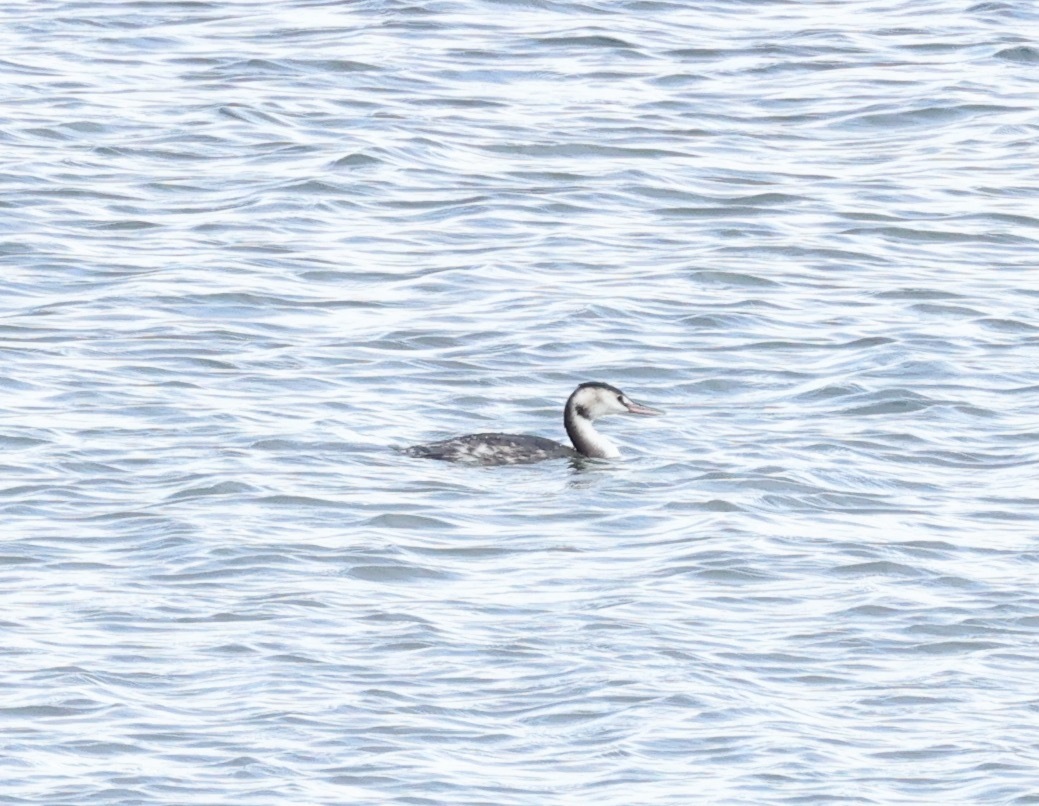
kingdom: Animalia
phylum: Chordata
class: Aves
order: Podicipediformes
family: Podicipedidae
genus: Podiceps
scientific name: Podiceps cristatus
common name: Great crested grebe
